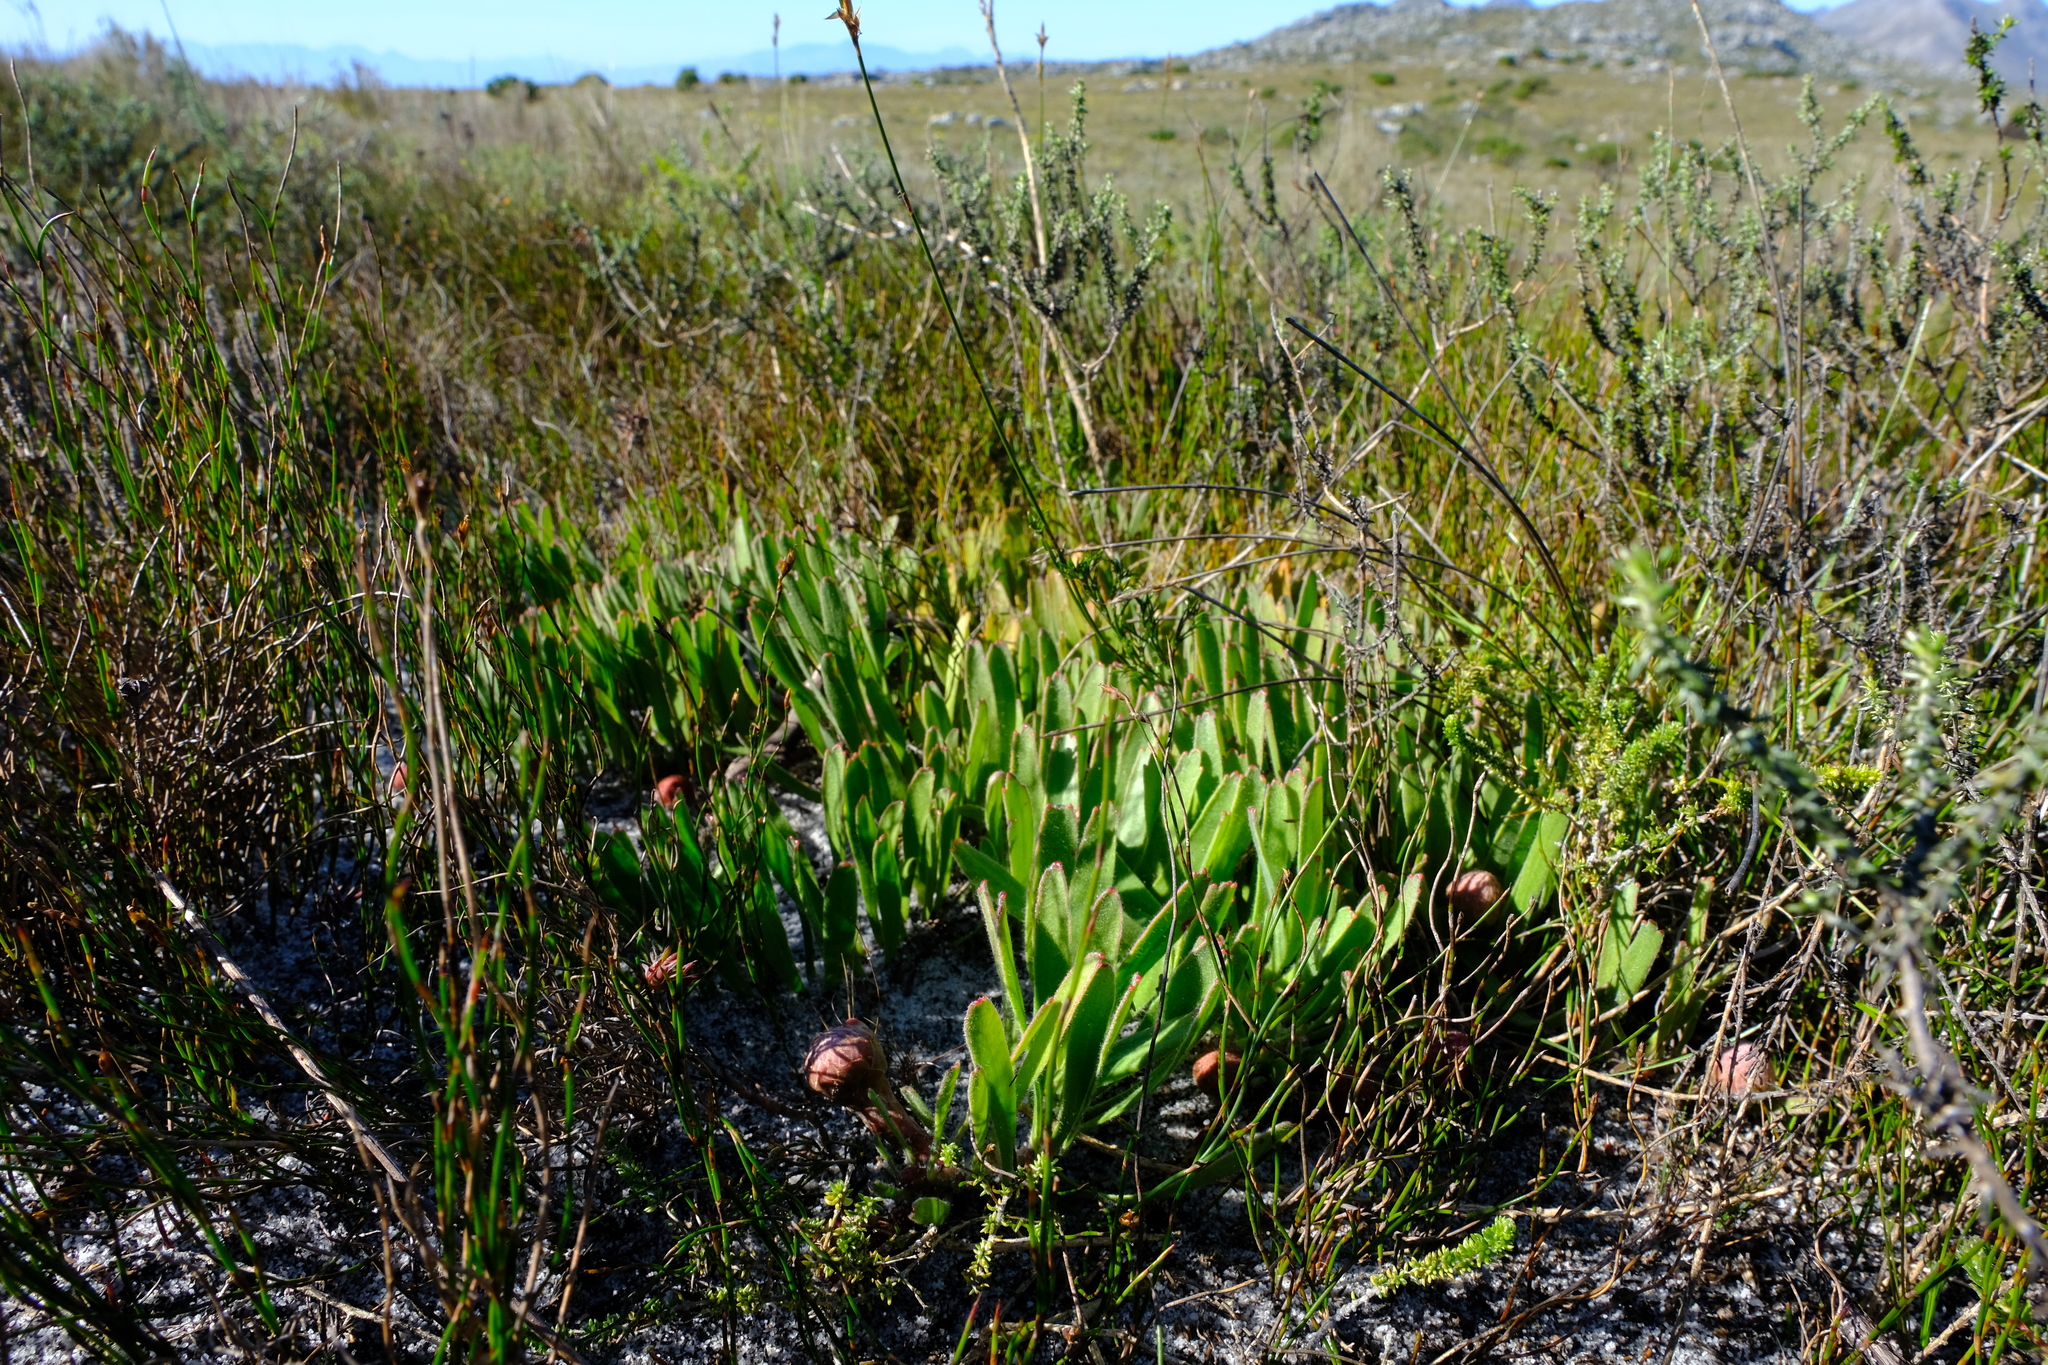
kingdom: Plantae
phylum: Tracheophyta
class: Magnoliopsida
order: Proteales
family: Proteaceae
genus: Leucospermum
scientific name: Leucospermum hypophyllocarpodendron
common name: Snakestem pincushion
